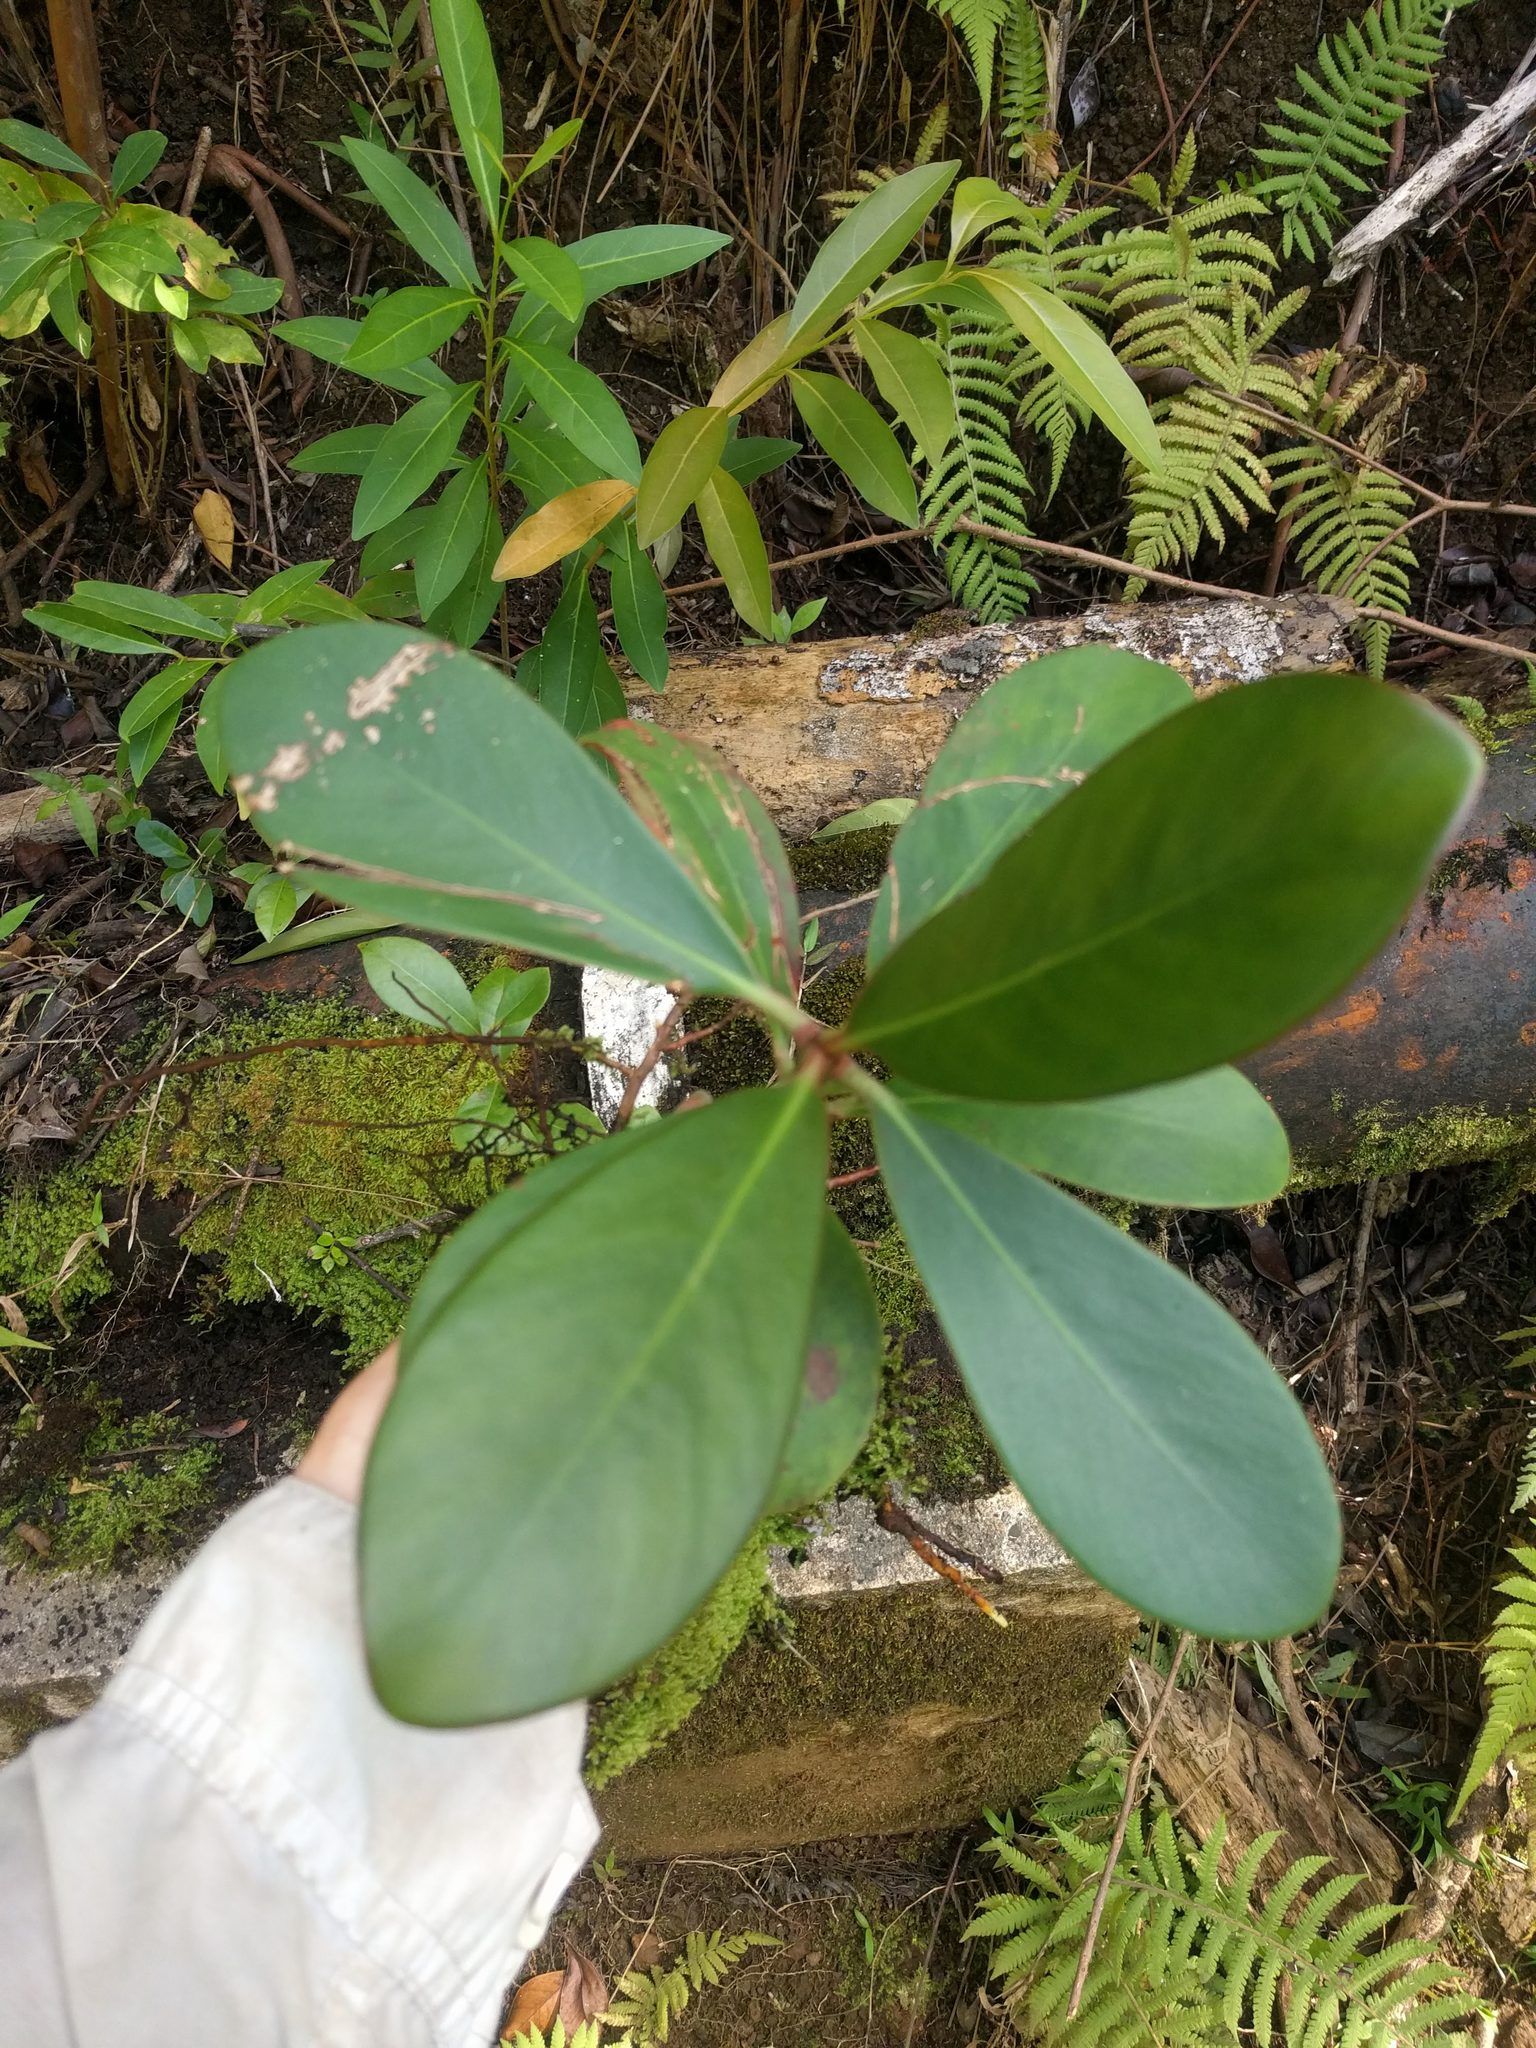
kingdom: Plantae
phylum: Tracheophyta
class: Magnoliopsida
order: Malpighiales
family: Clusiaceae
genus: Clusia
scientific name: Clusia rosea
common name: Scotch attorney
